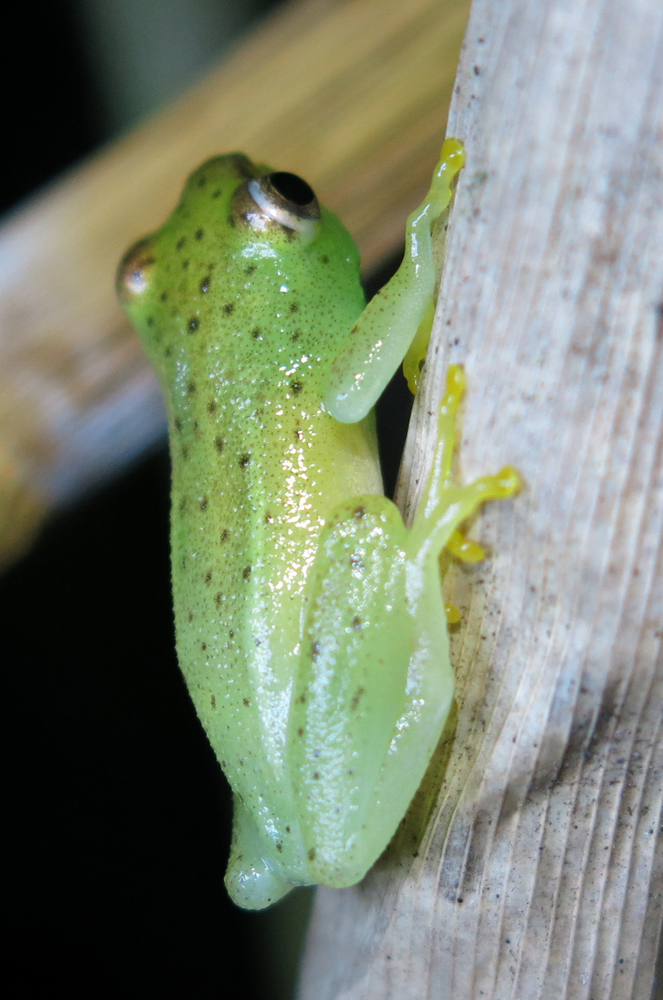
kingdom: Animalia
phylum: Chordata
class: Amphibia
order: Anura
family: Hyperoliidae
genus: Hyperolius
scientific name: Hyperolius pusillus
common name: Water lily reed frog
